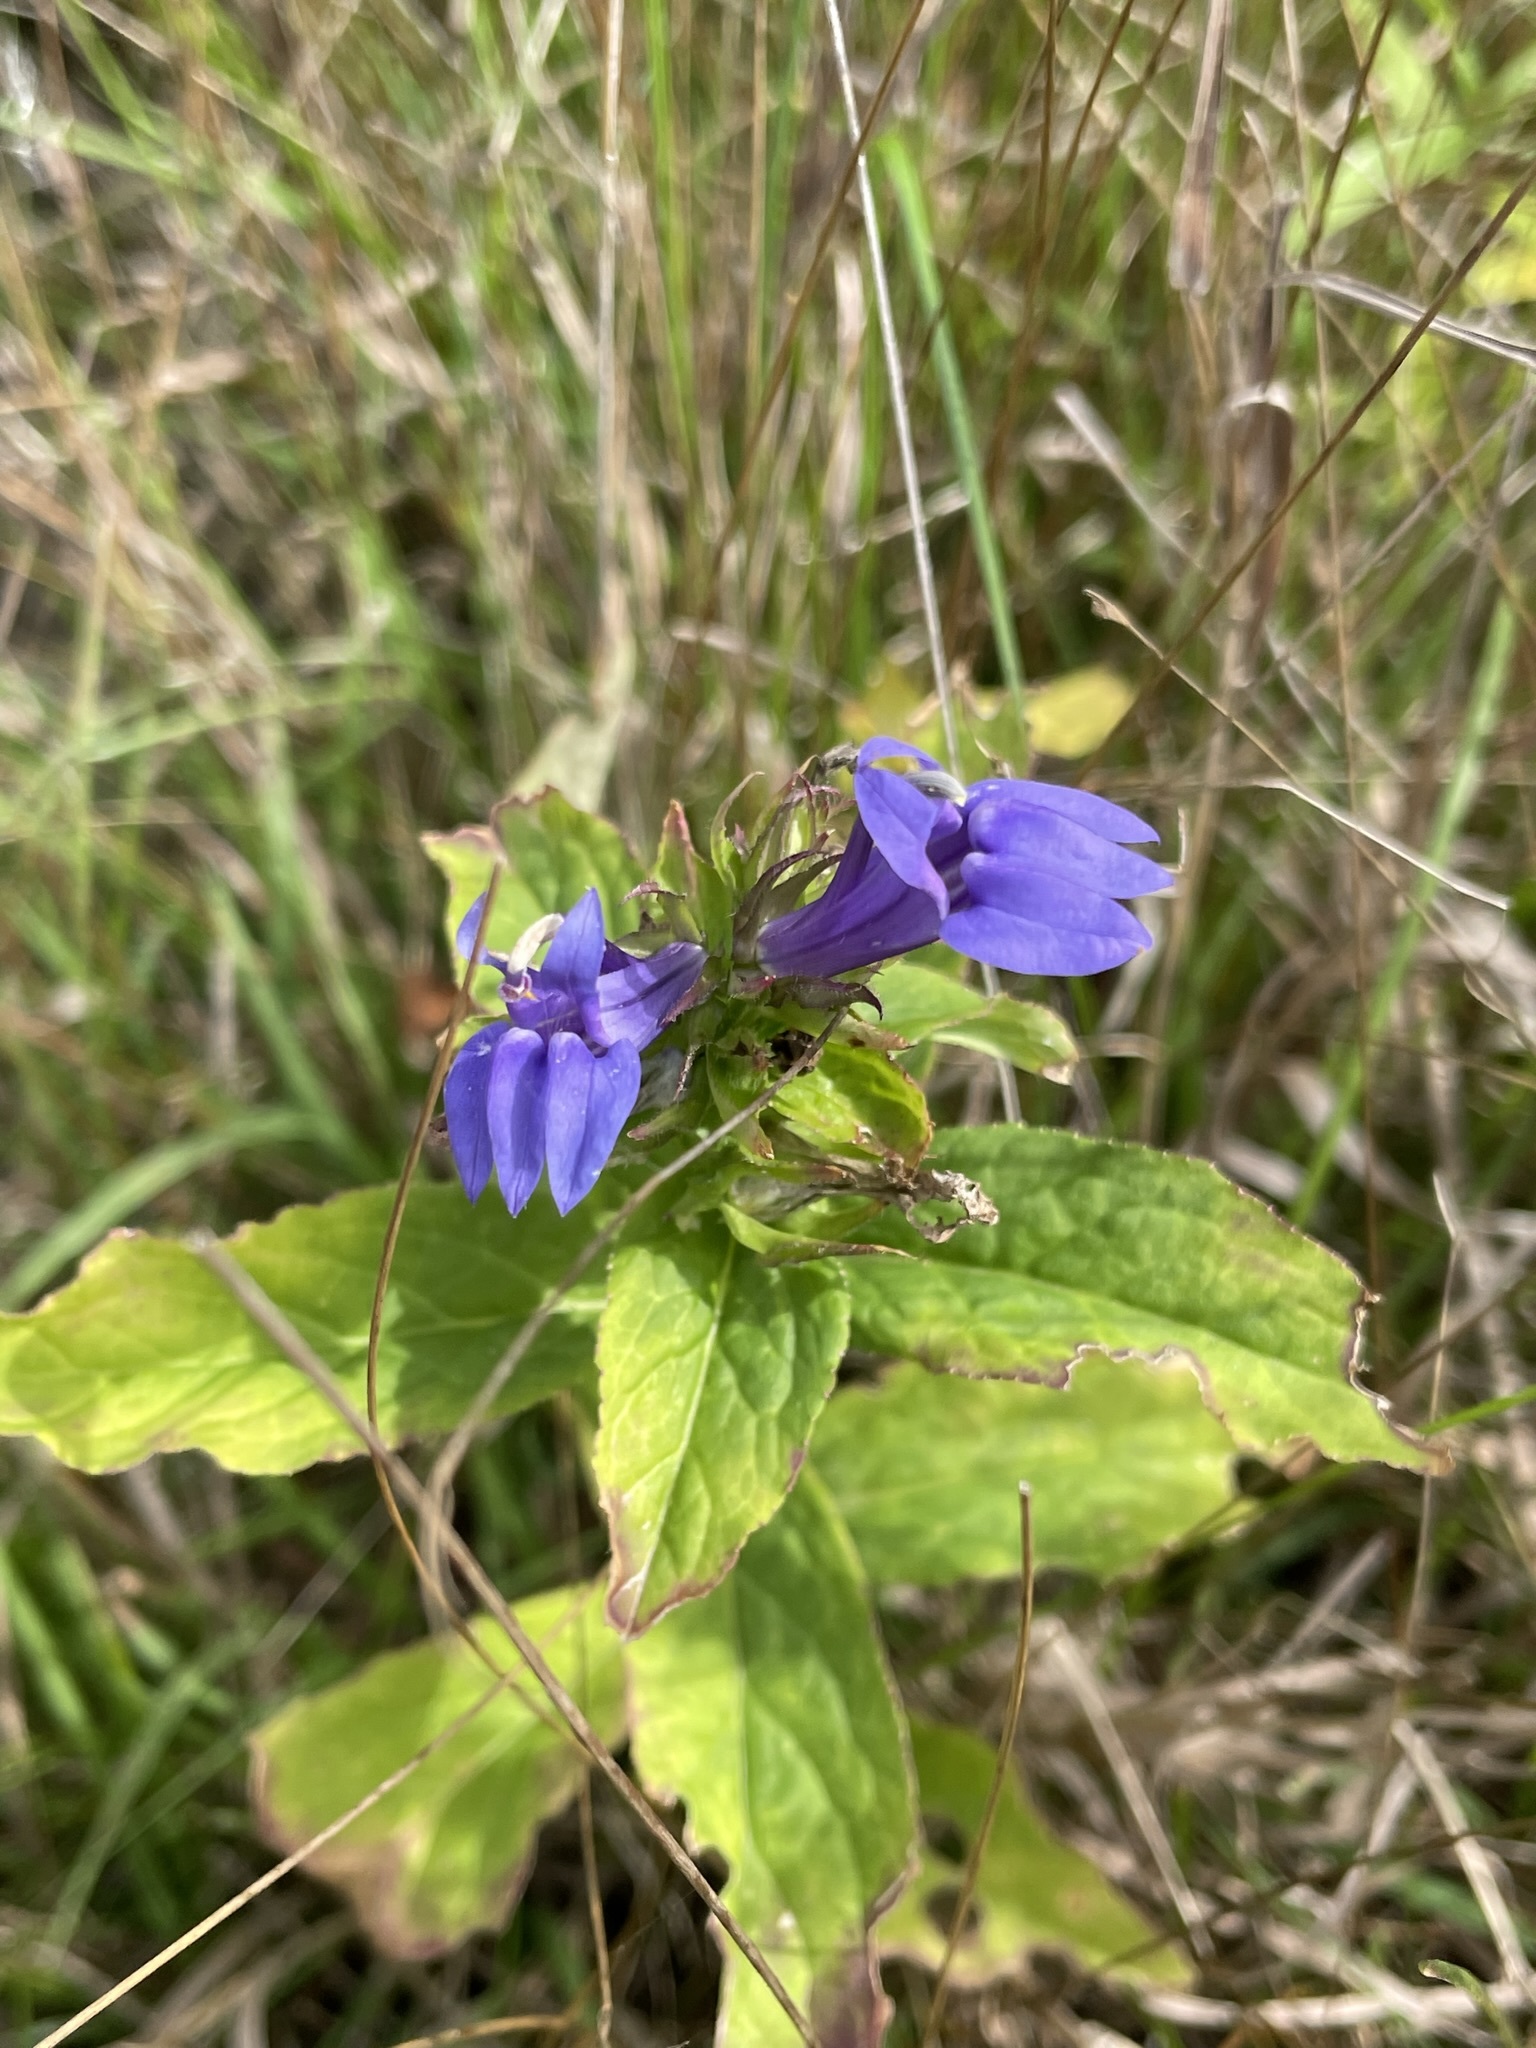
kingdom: Plantae
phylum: Tracheophyta
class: Magnoliopsida
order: Asterales
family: Campanulaceae
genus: Lobelia
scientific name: Lobelia siphilitica
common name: Great lobelia
